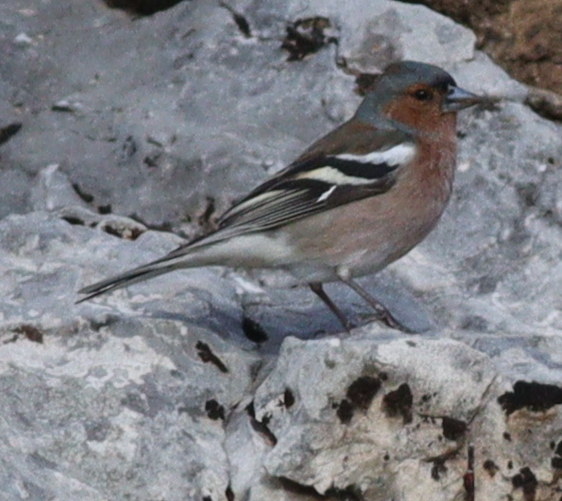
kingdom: Animalia
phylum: Chordata
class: Aves
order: Passeriformes
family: Fringillidae
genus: Fringilla
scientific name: Fringilla coelebs
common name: Common chaffinch
